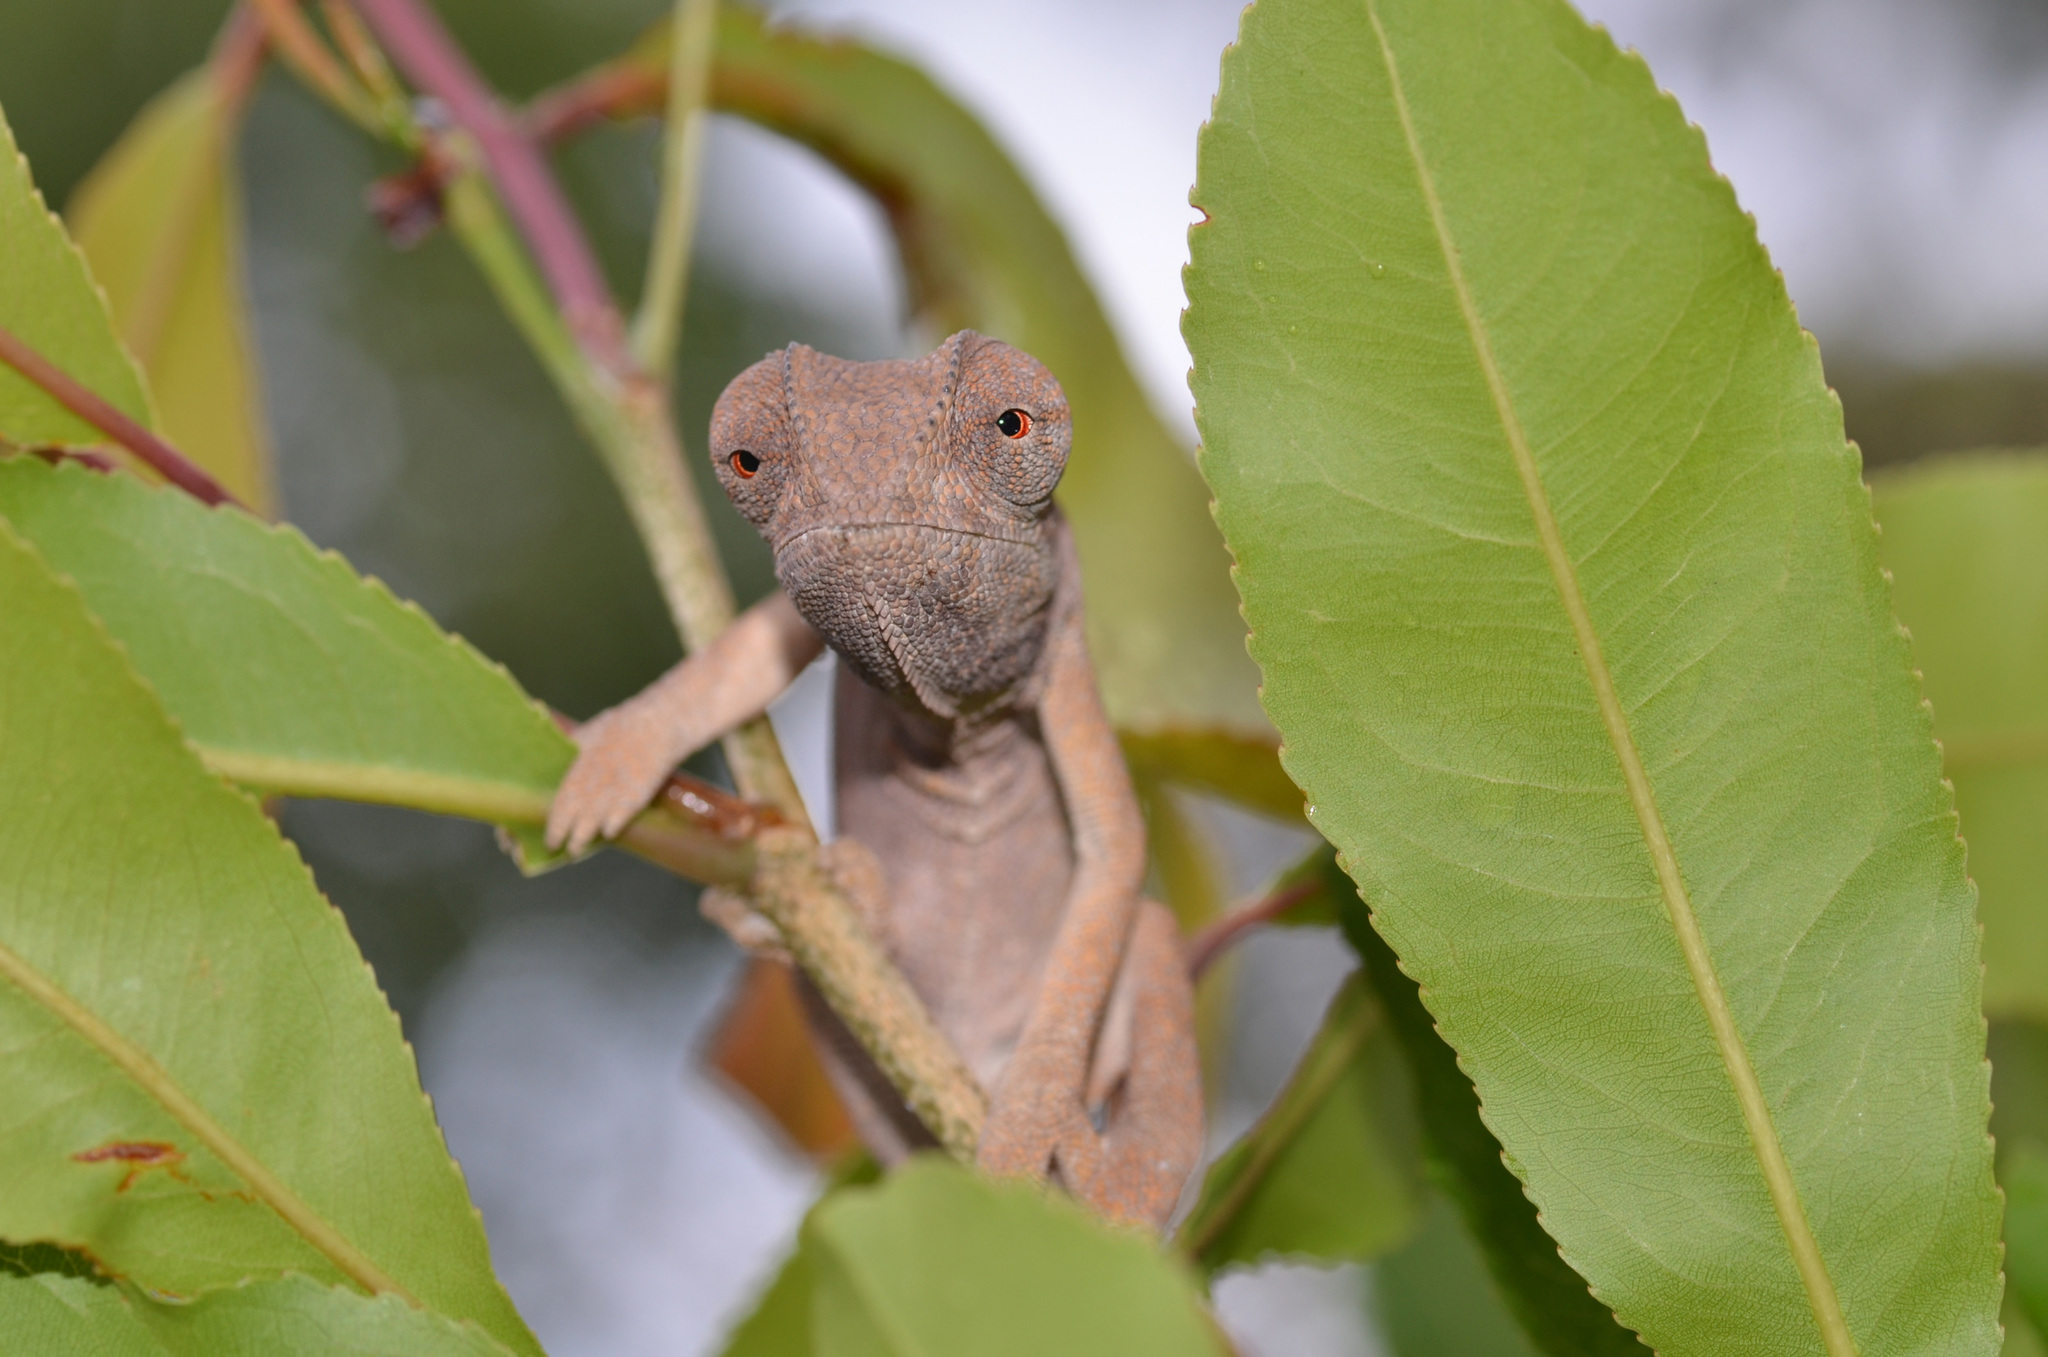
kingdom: Animalia
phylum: Chordata
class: Squamata
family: Chamaeleonidae
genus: Chamaeleo
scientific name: Chamaeleo dilepis
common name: Flapneck chameleon
